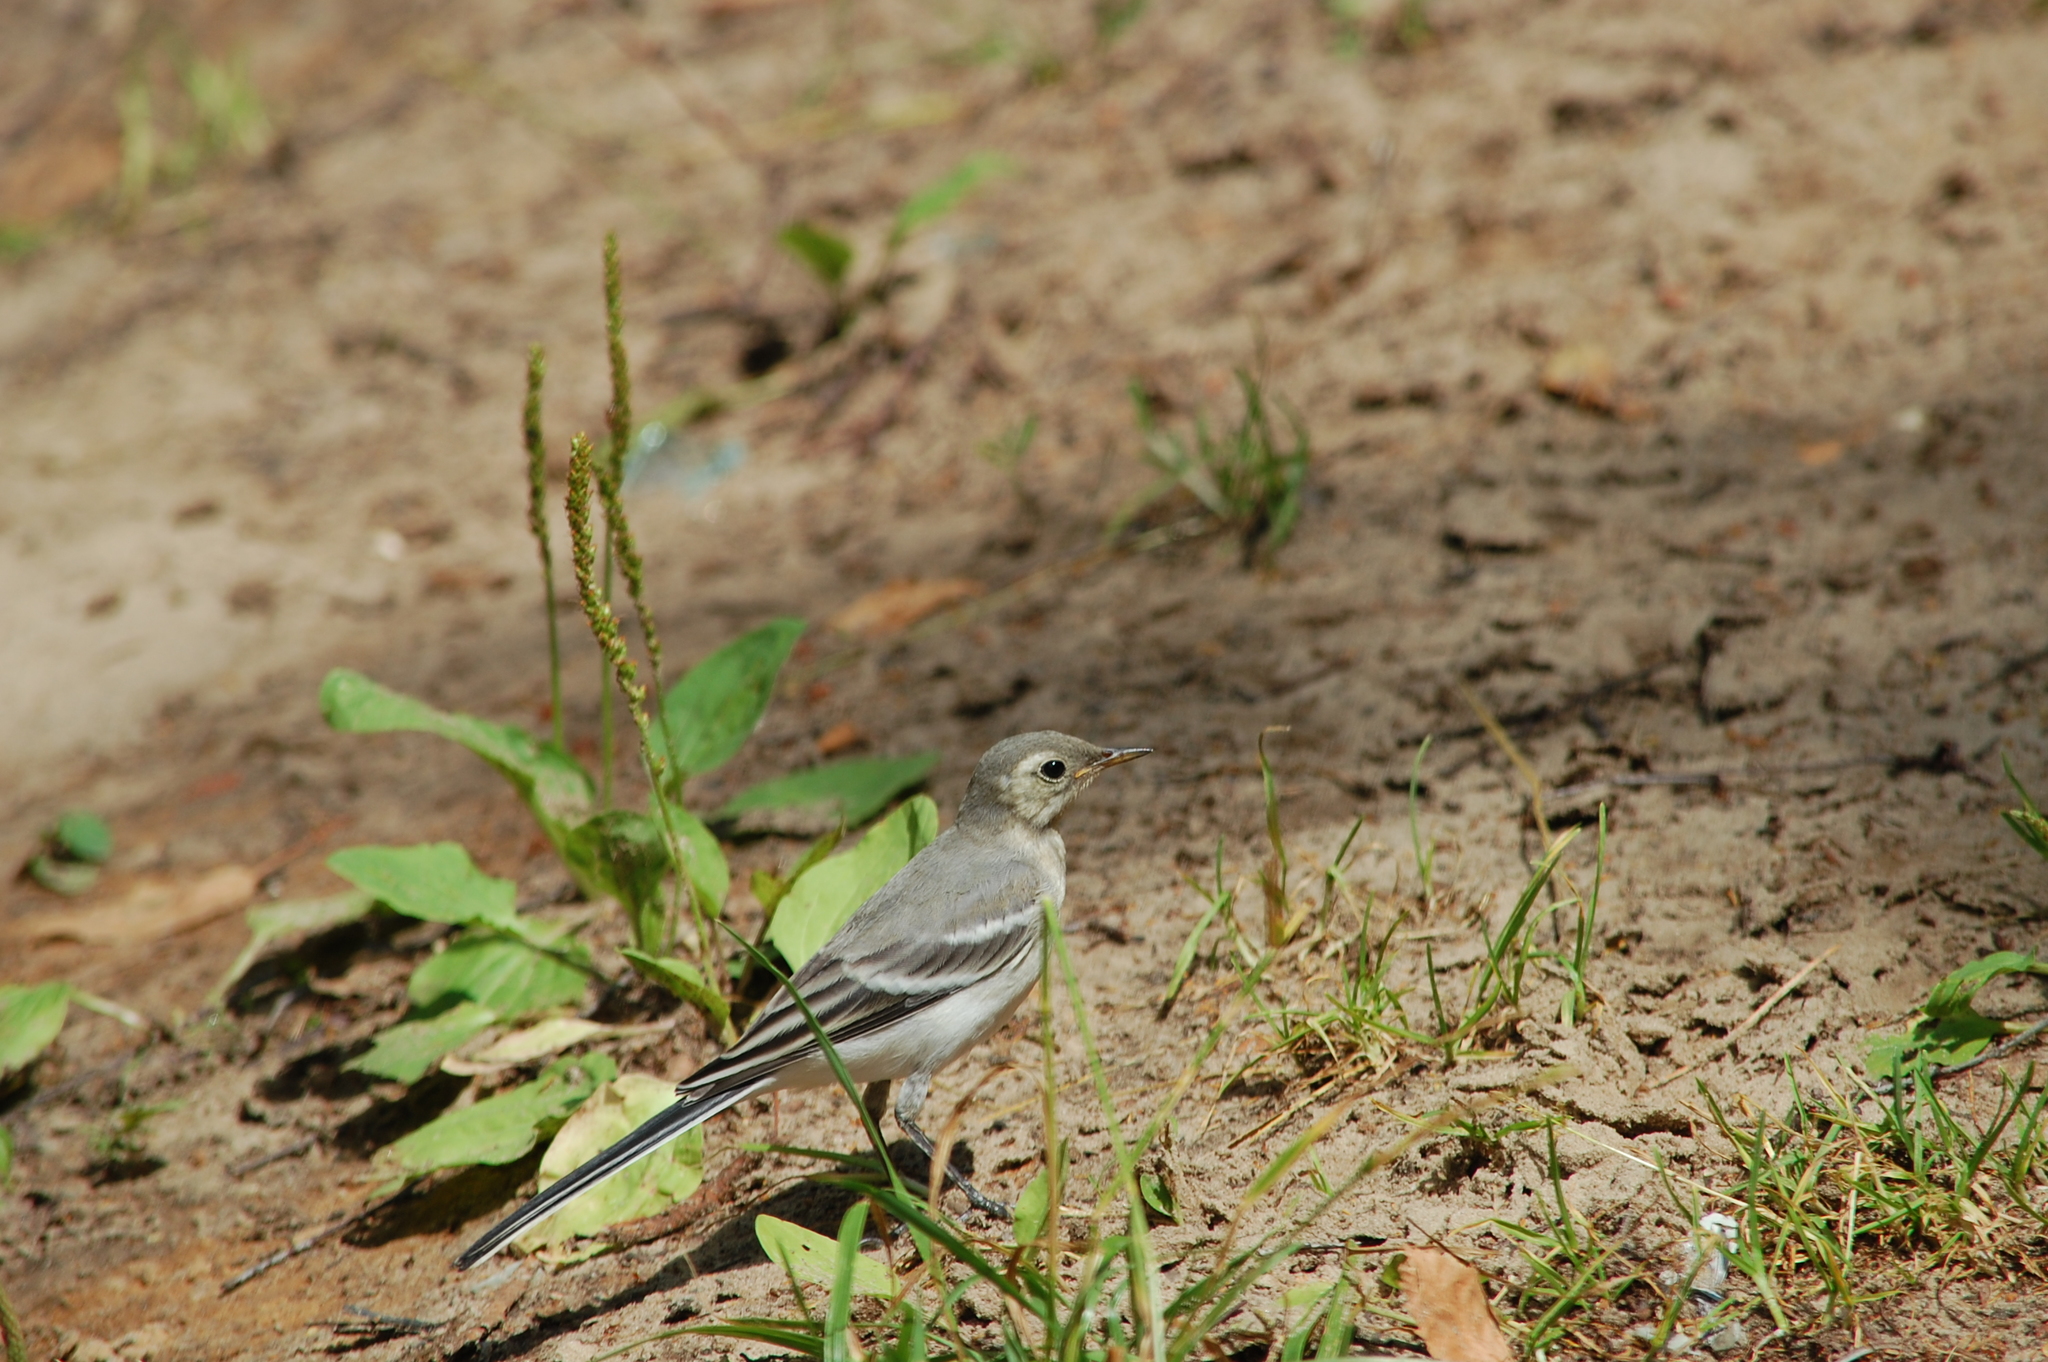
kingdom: Animalia
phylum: Chordata
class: Aves
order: Passeriformes
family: Motacillidae
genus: Motacilla
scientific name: Motacilla alba
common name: White wagtail
